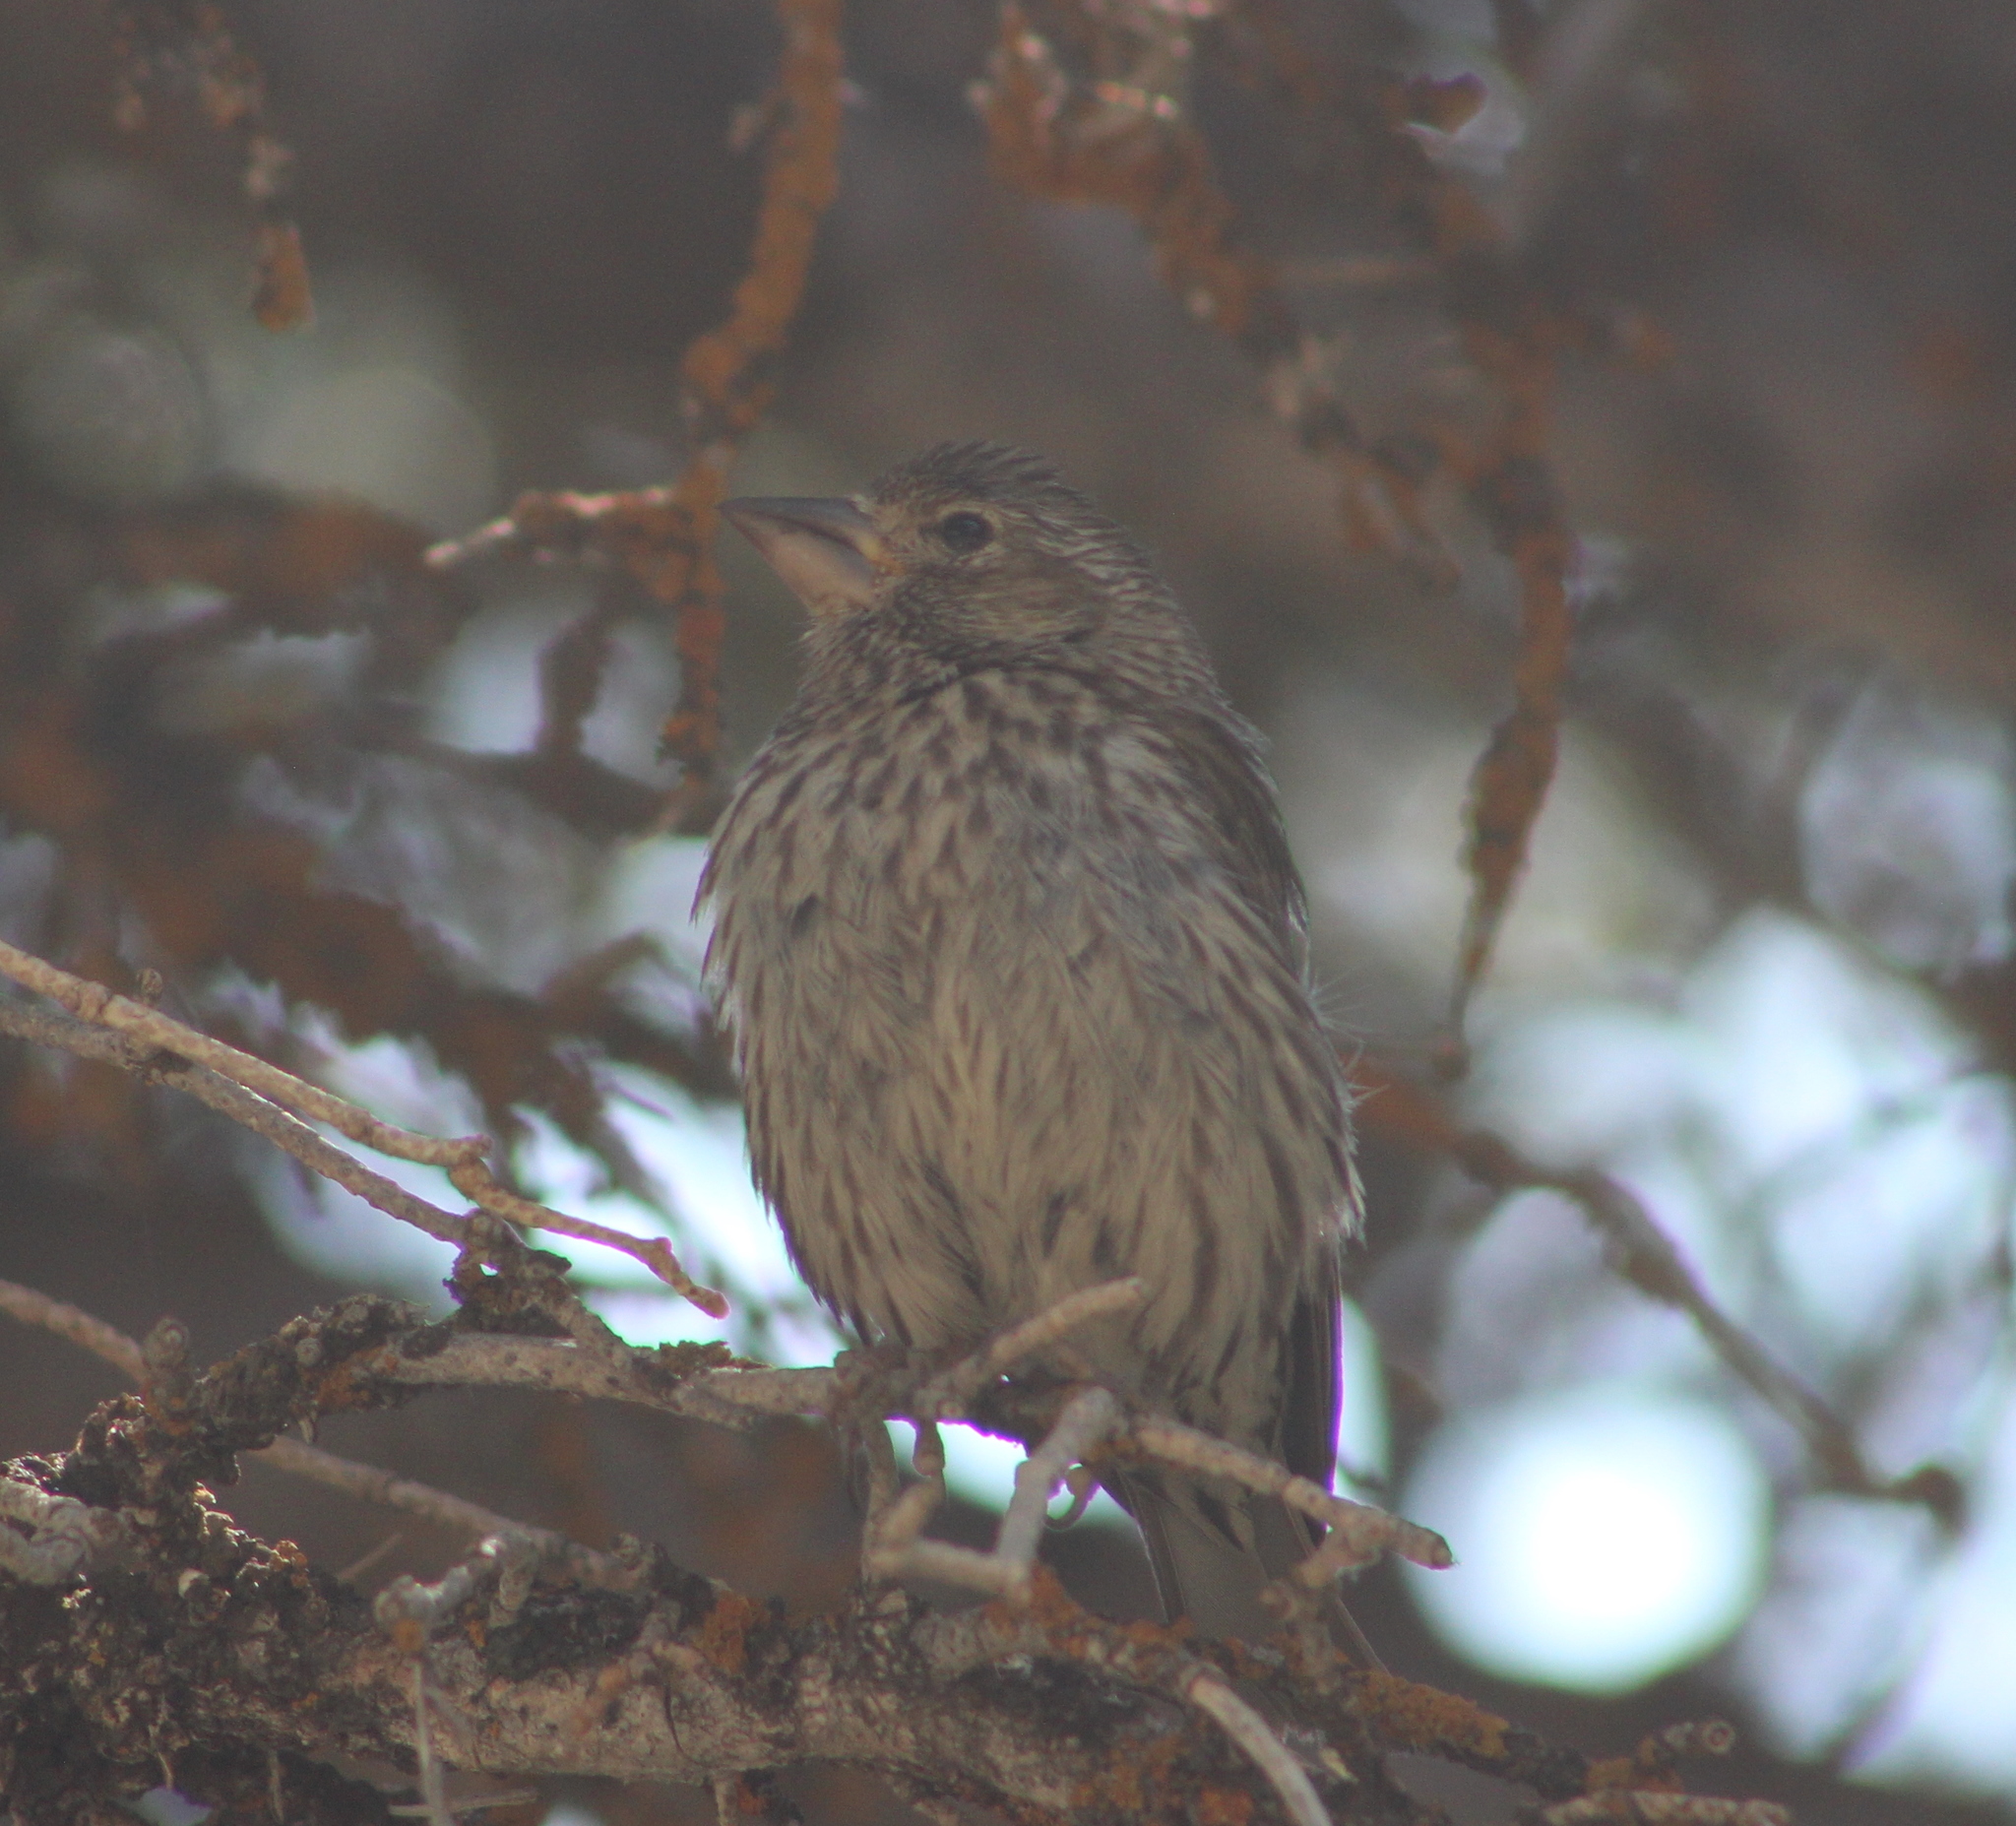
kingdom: Animalia
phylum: Chordata
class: Aves
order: Passeriformes
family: Fringillidae
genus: Haemorhous
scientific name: Haemorhous cassinii
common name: Cassin's finch
